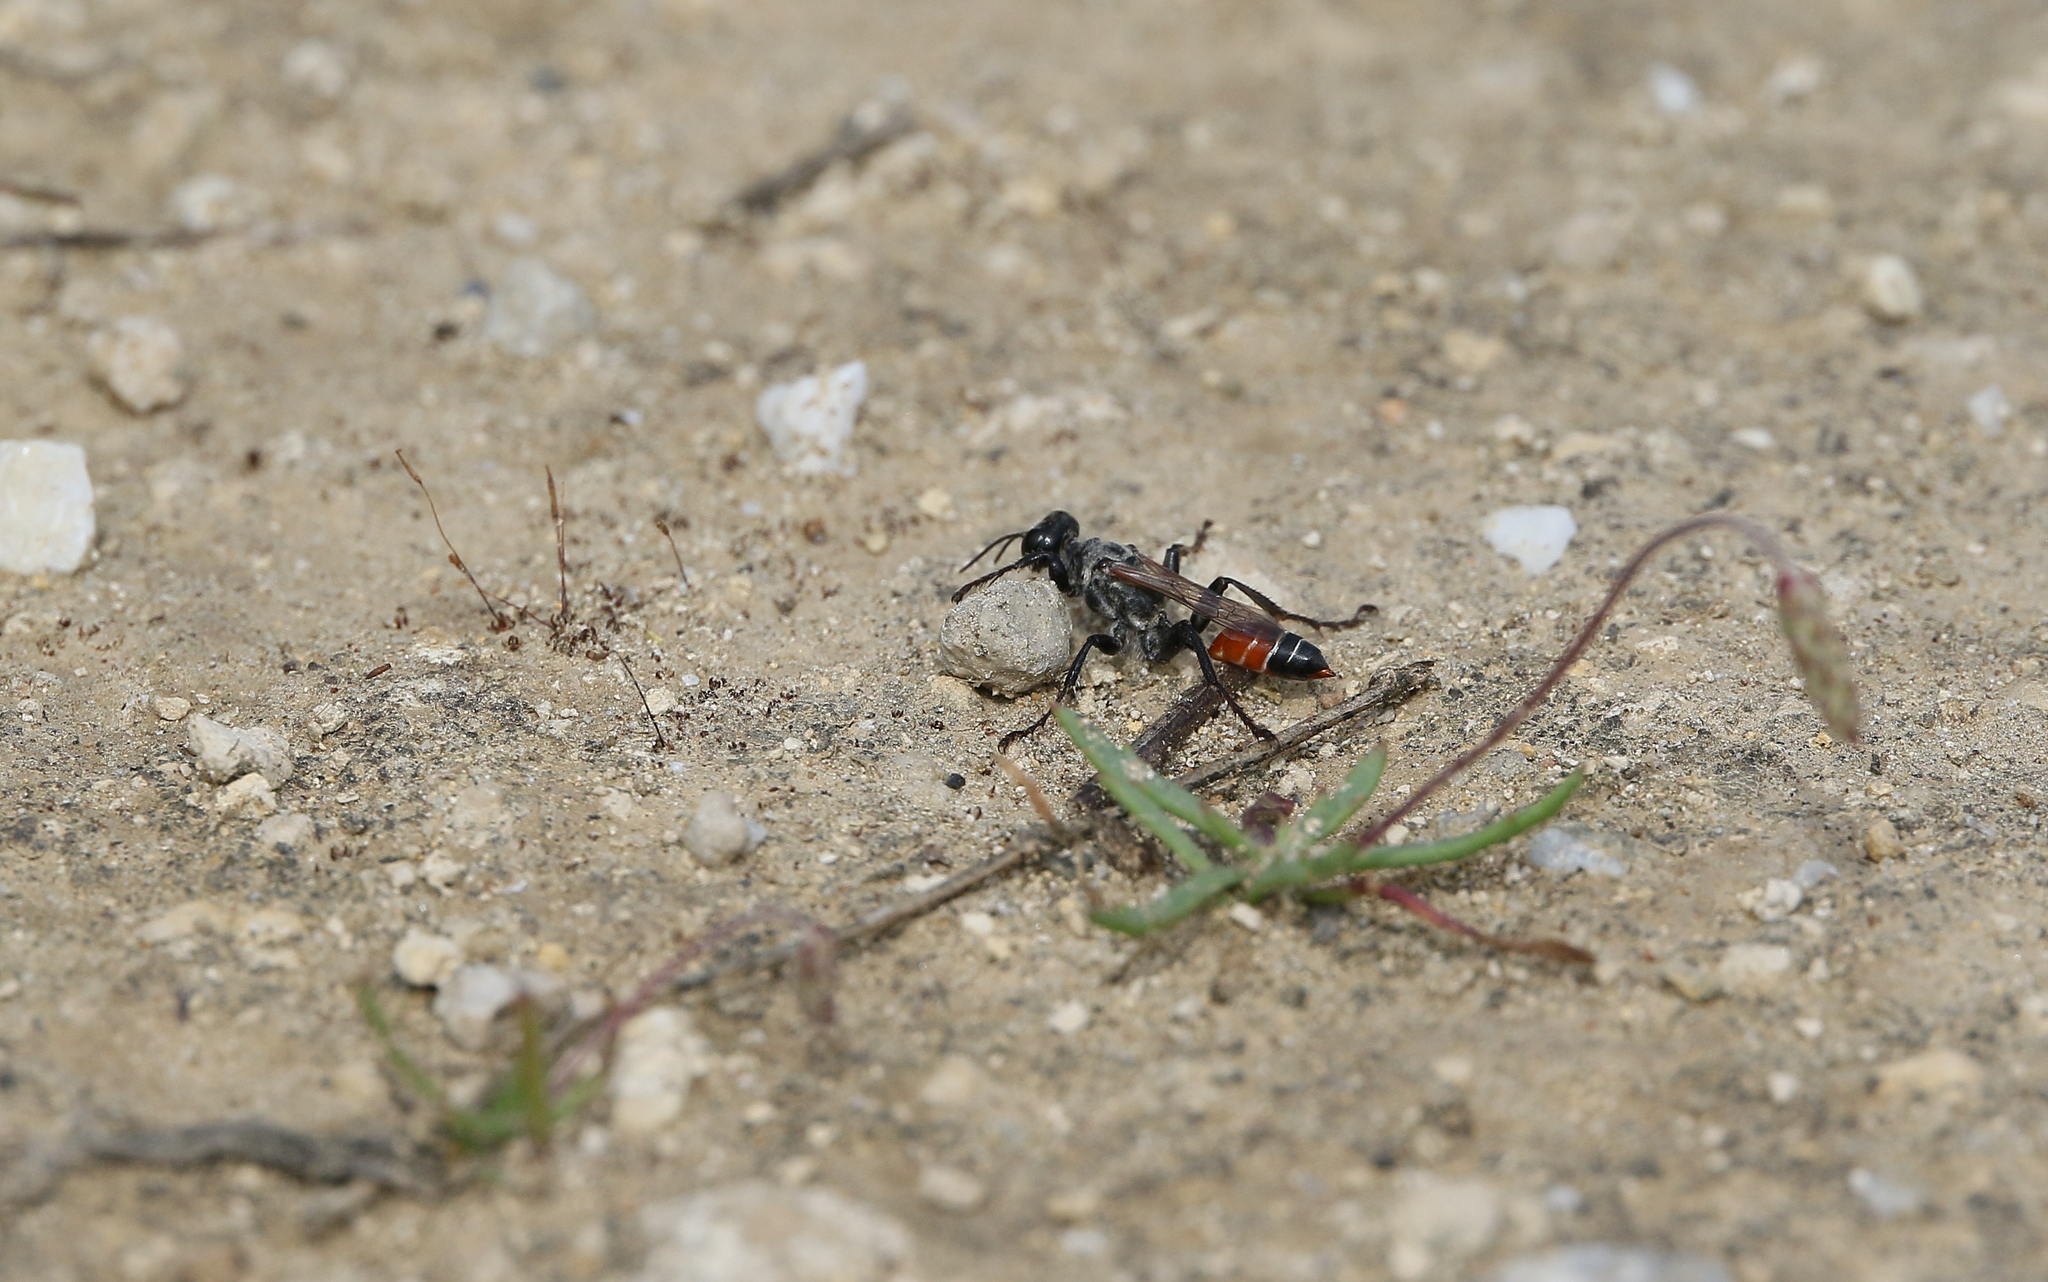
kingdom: Animalia
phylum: Arthropoda
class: Insecta
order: Hymenoptera
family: Sphecidae
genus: Prionyx
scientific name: Prionyx kirbii
